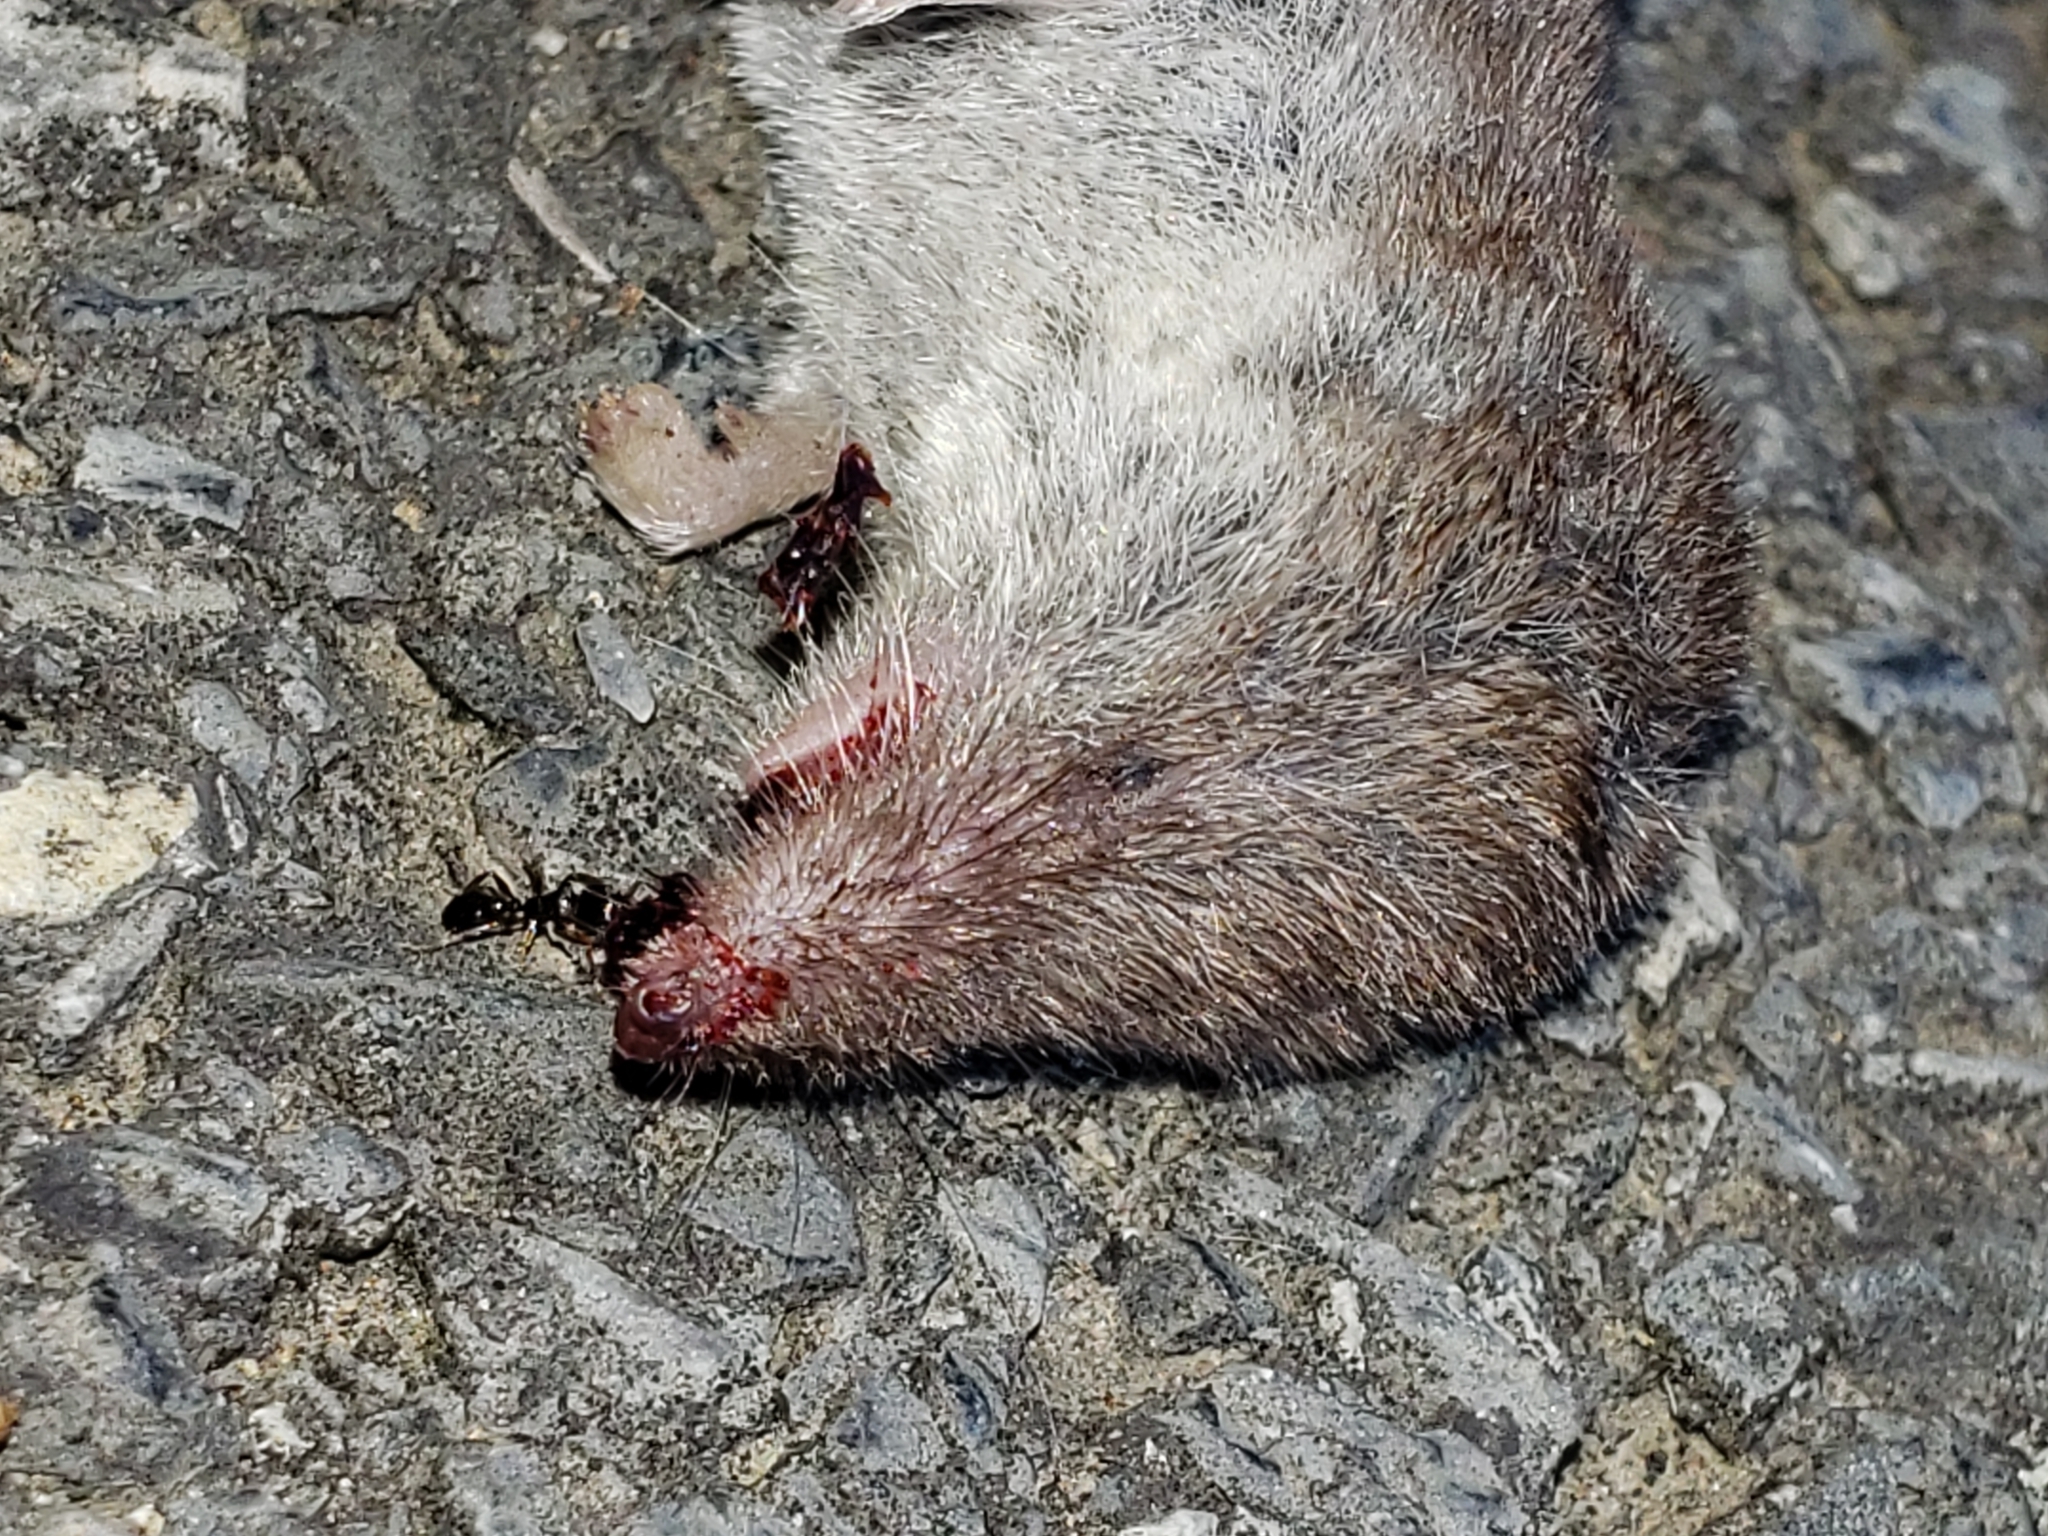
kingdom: Animalia
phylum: Chordata
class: Mammalia
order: Soricomorpha
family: Soricidae
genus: Cryptotis
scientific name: Cryptotis parva
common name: North american least shrew
